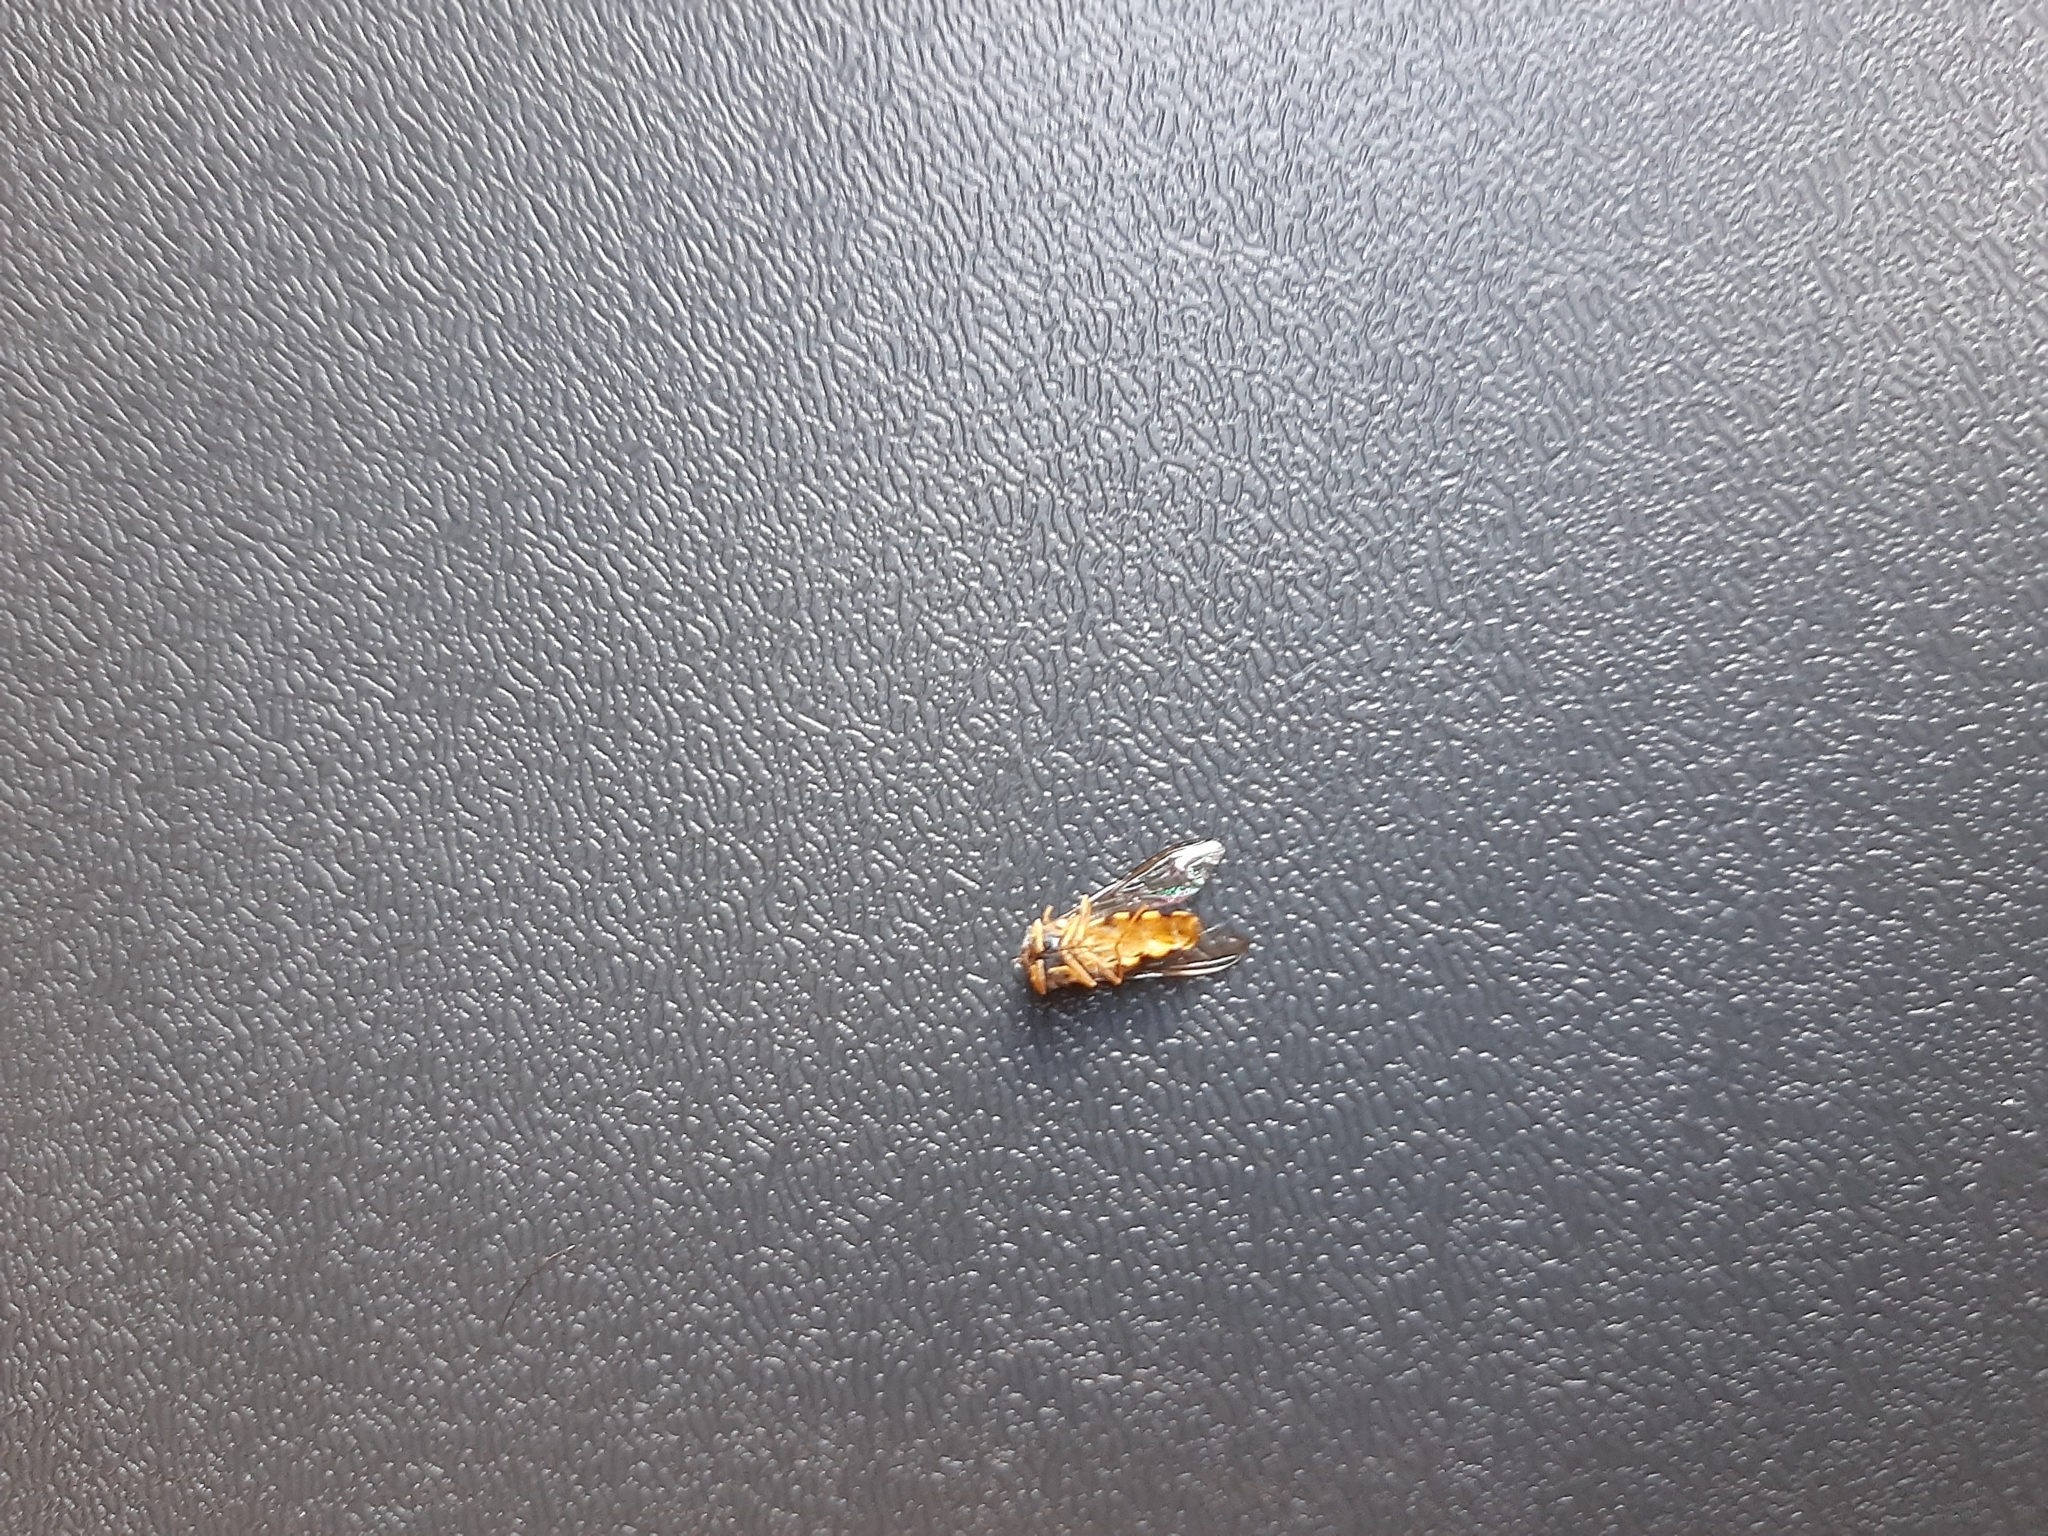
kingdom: Animalia
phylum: Arthropoda
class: Insecta
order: Diptera
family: Syrphidae
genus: Epistrophe
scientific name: Epistrophe
